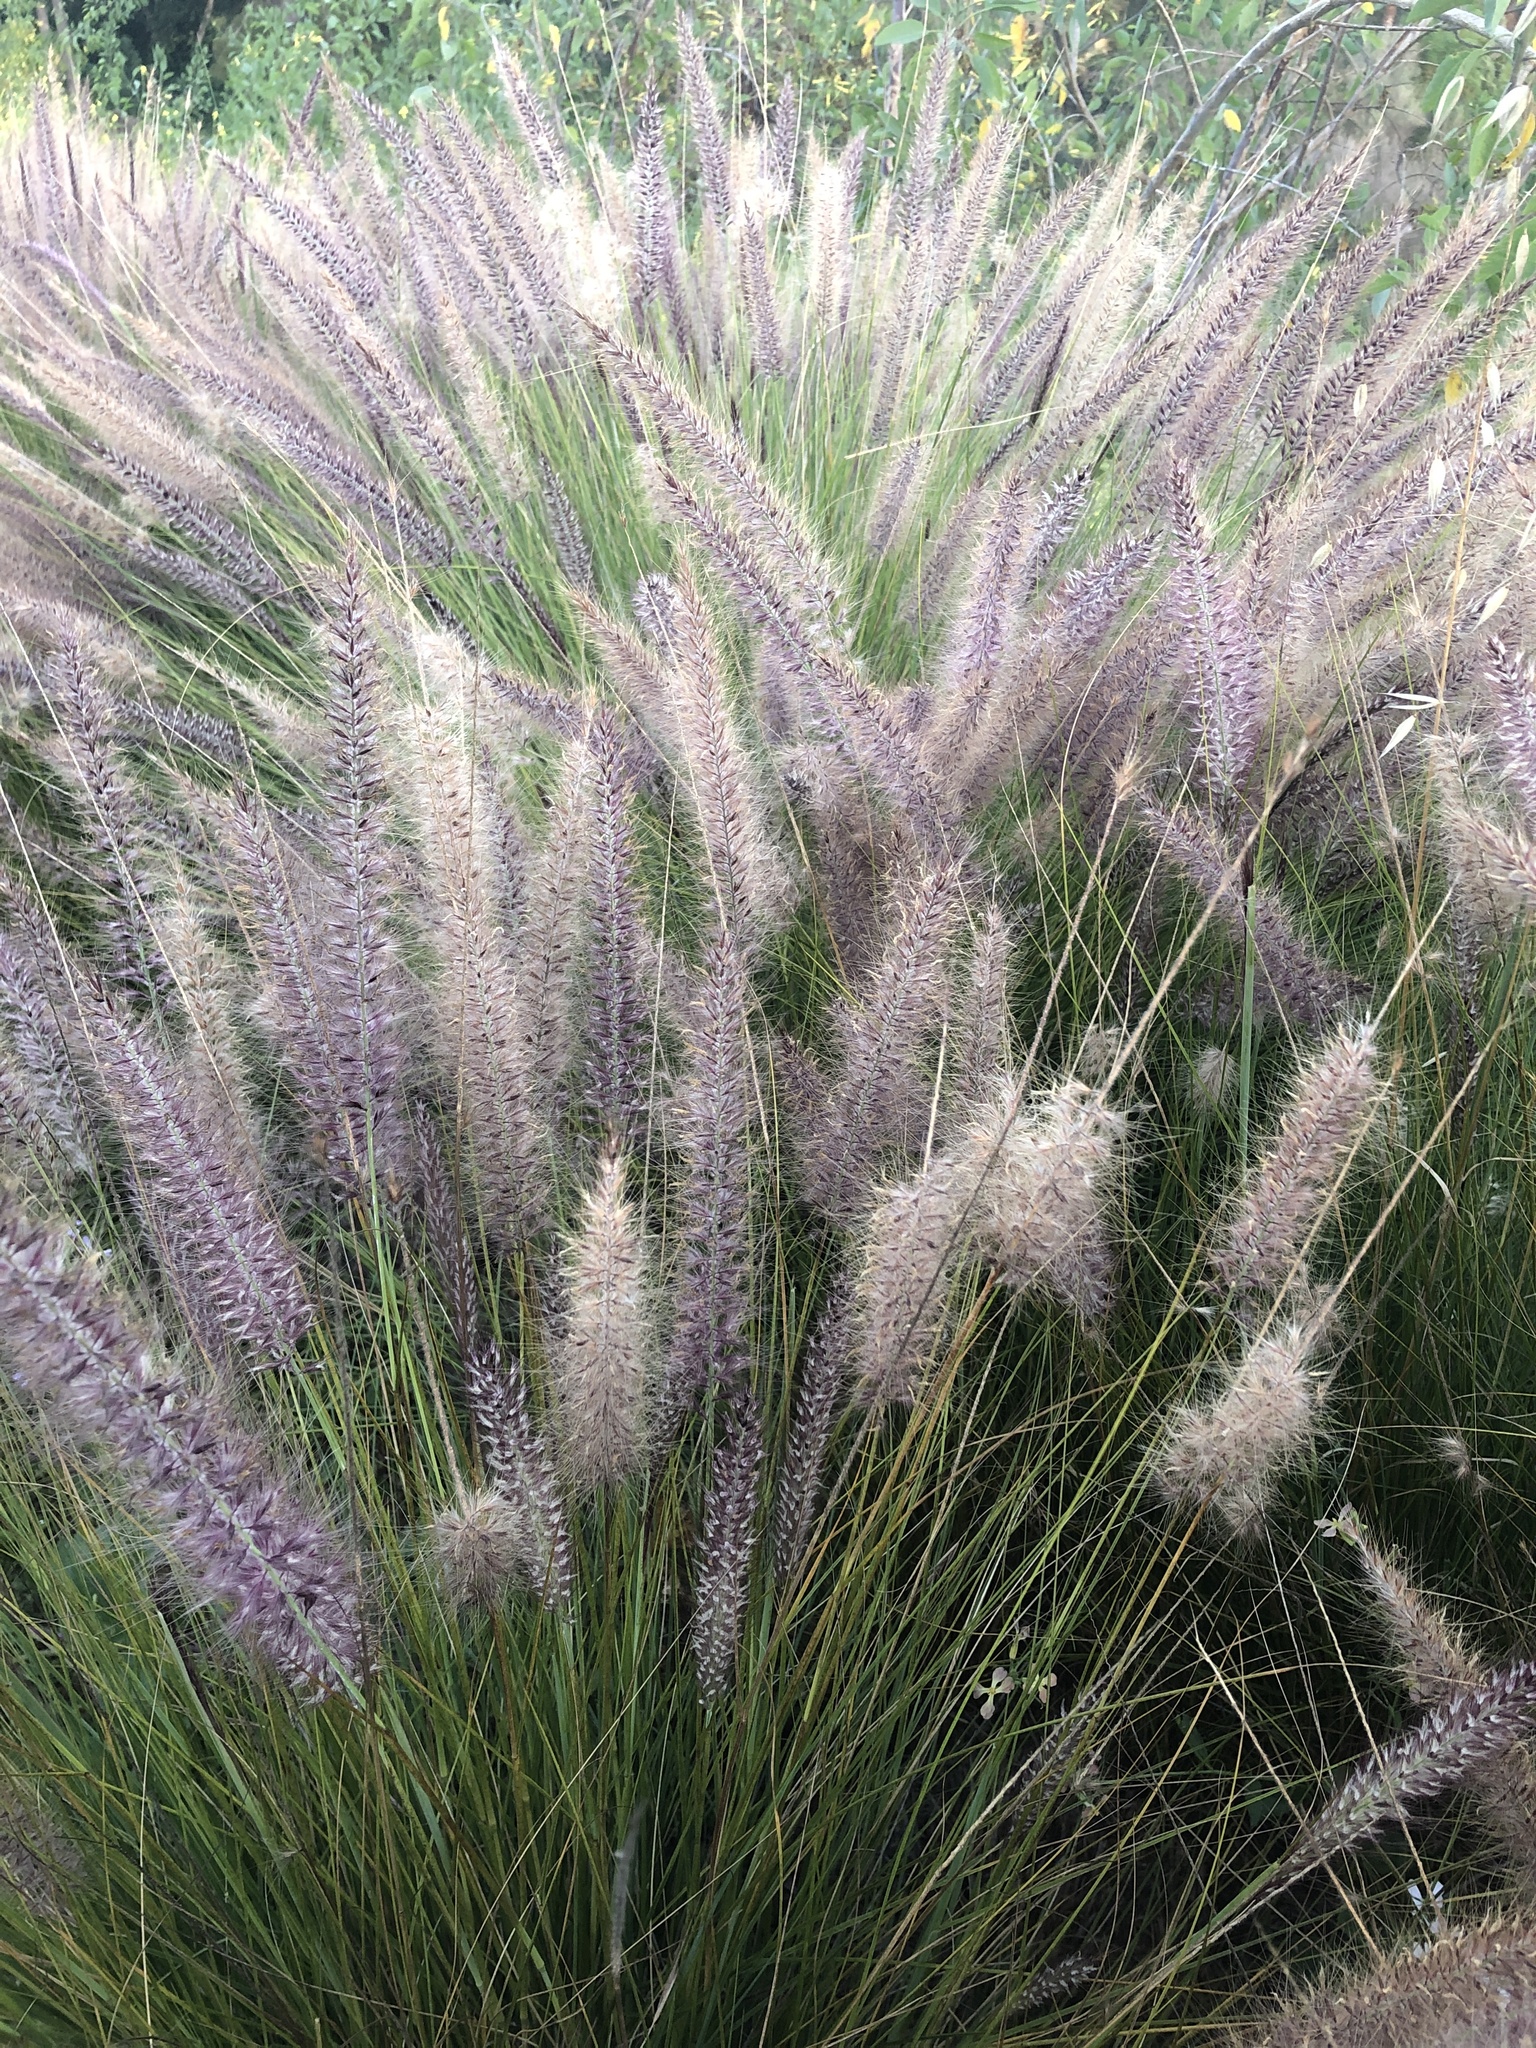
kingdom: Plantae
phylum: Tracheophyta
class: Liliopsida
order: Poales
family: Poaceae
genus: Cenchrus
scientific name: Cenchrus setaceus
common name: Crimson fountaingrass
